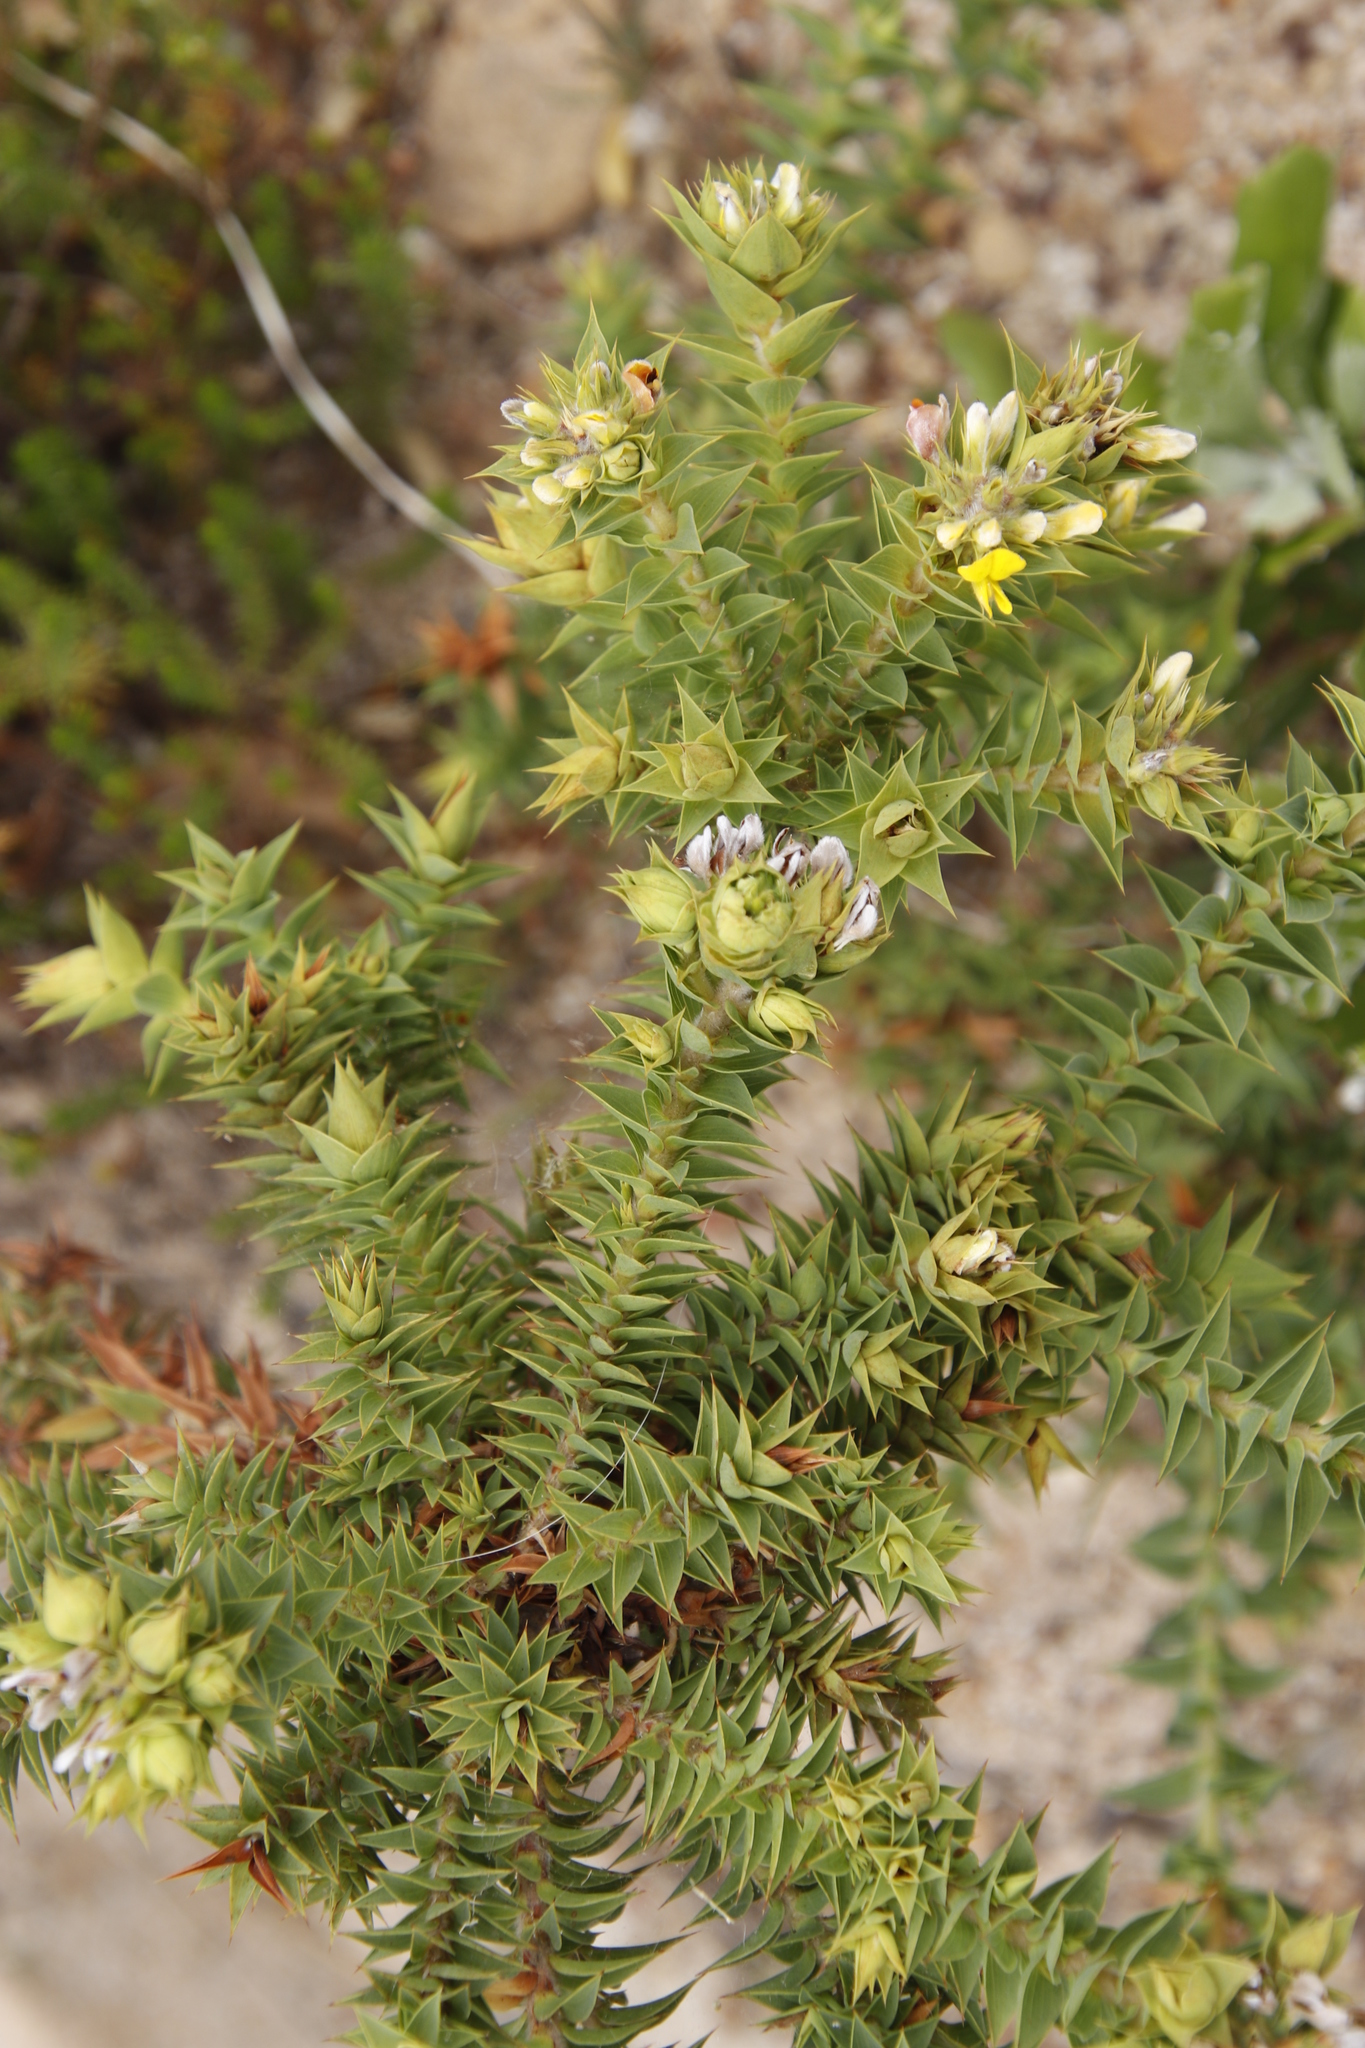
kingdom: Plantae
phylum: Tracheophyta
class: Magnoliopsida
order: Fabales
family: Fabaceae
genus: Aspalathus
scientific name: Aspalathus cordata
